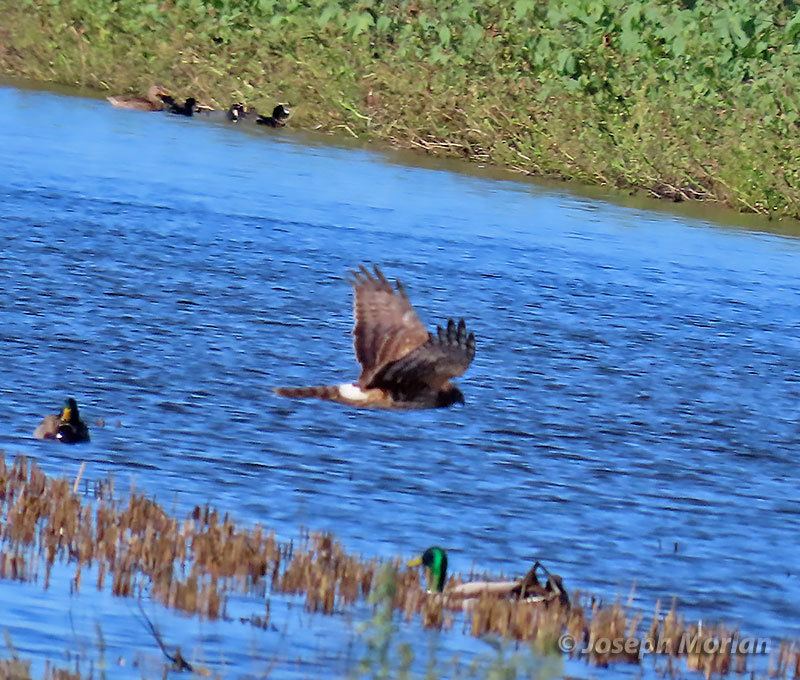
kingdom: Animalia
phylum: Chordata
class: Aves
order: Accipitriformes
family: Accipitridae
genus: Circus
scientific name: Circus cyaneus
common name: Hen harrier
